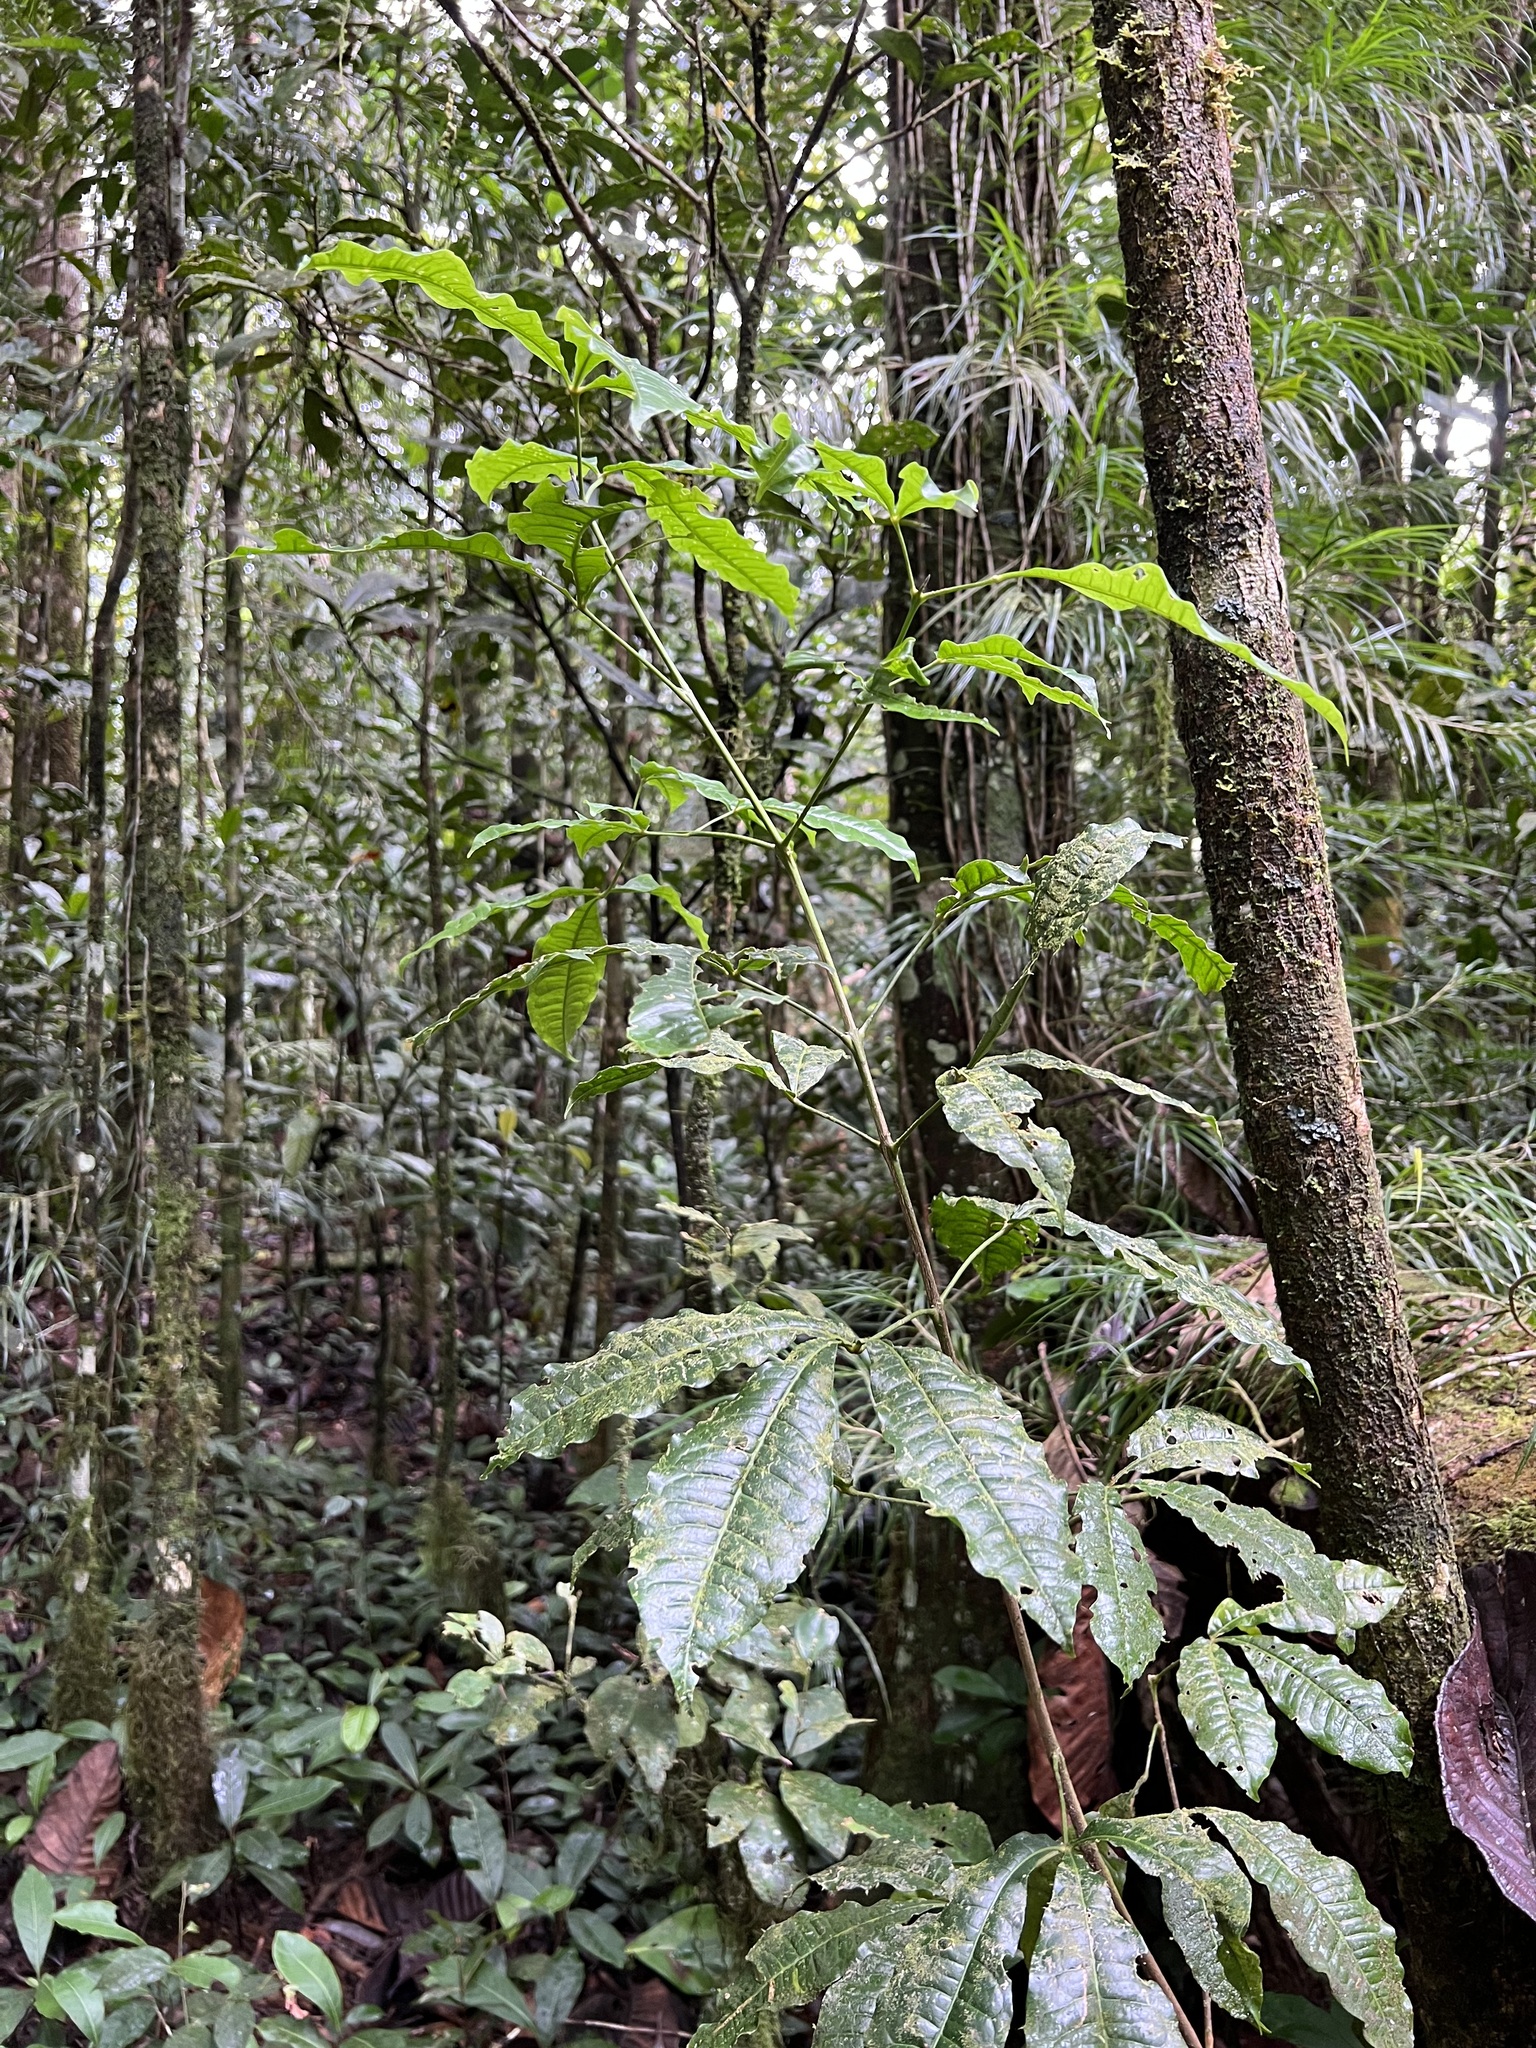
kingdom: Plantae
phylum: Tracheophyta
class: Magnoliopsida
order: Sapindales
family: Rutaceae
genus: Melicope
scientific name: Melicope lasioneura
